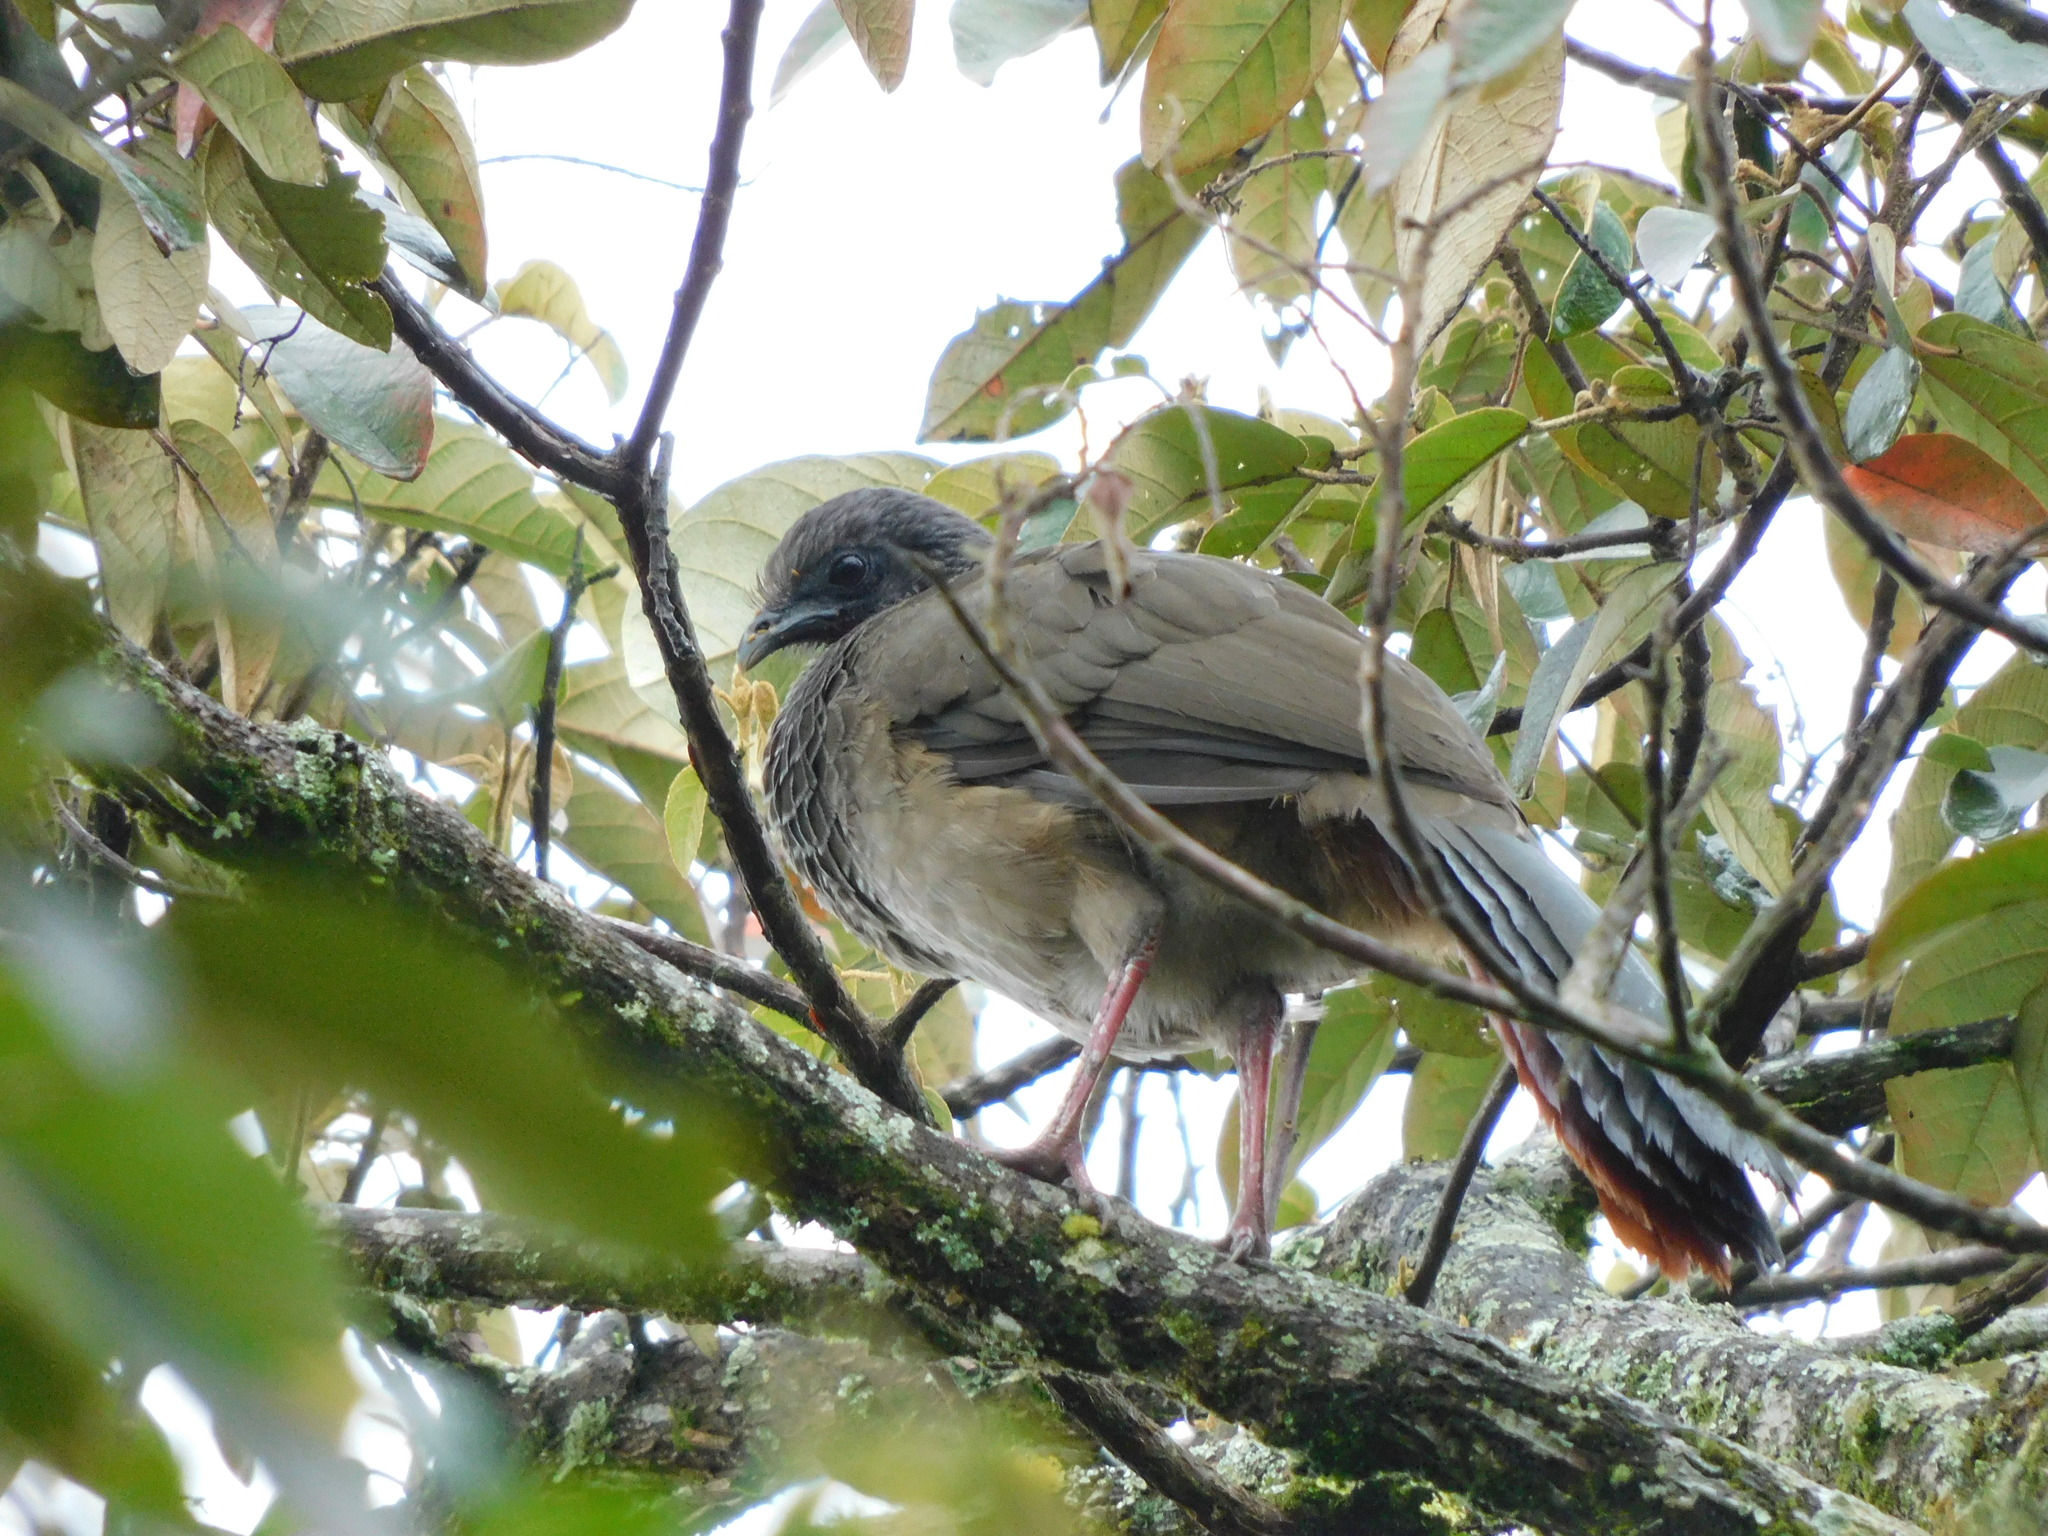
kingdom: Animalia
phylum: Chordata
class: Aves
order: Galliformes
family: Cracidae
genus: Ortalis
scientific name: Ortalis columbiana
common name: Colombian chachalaca
